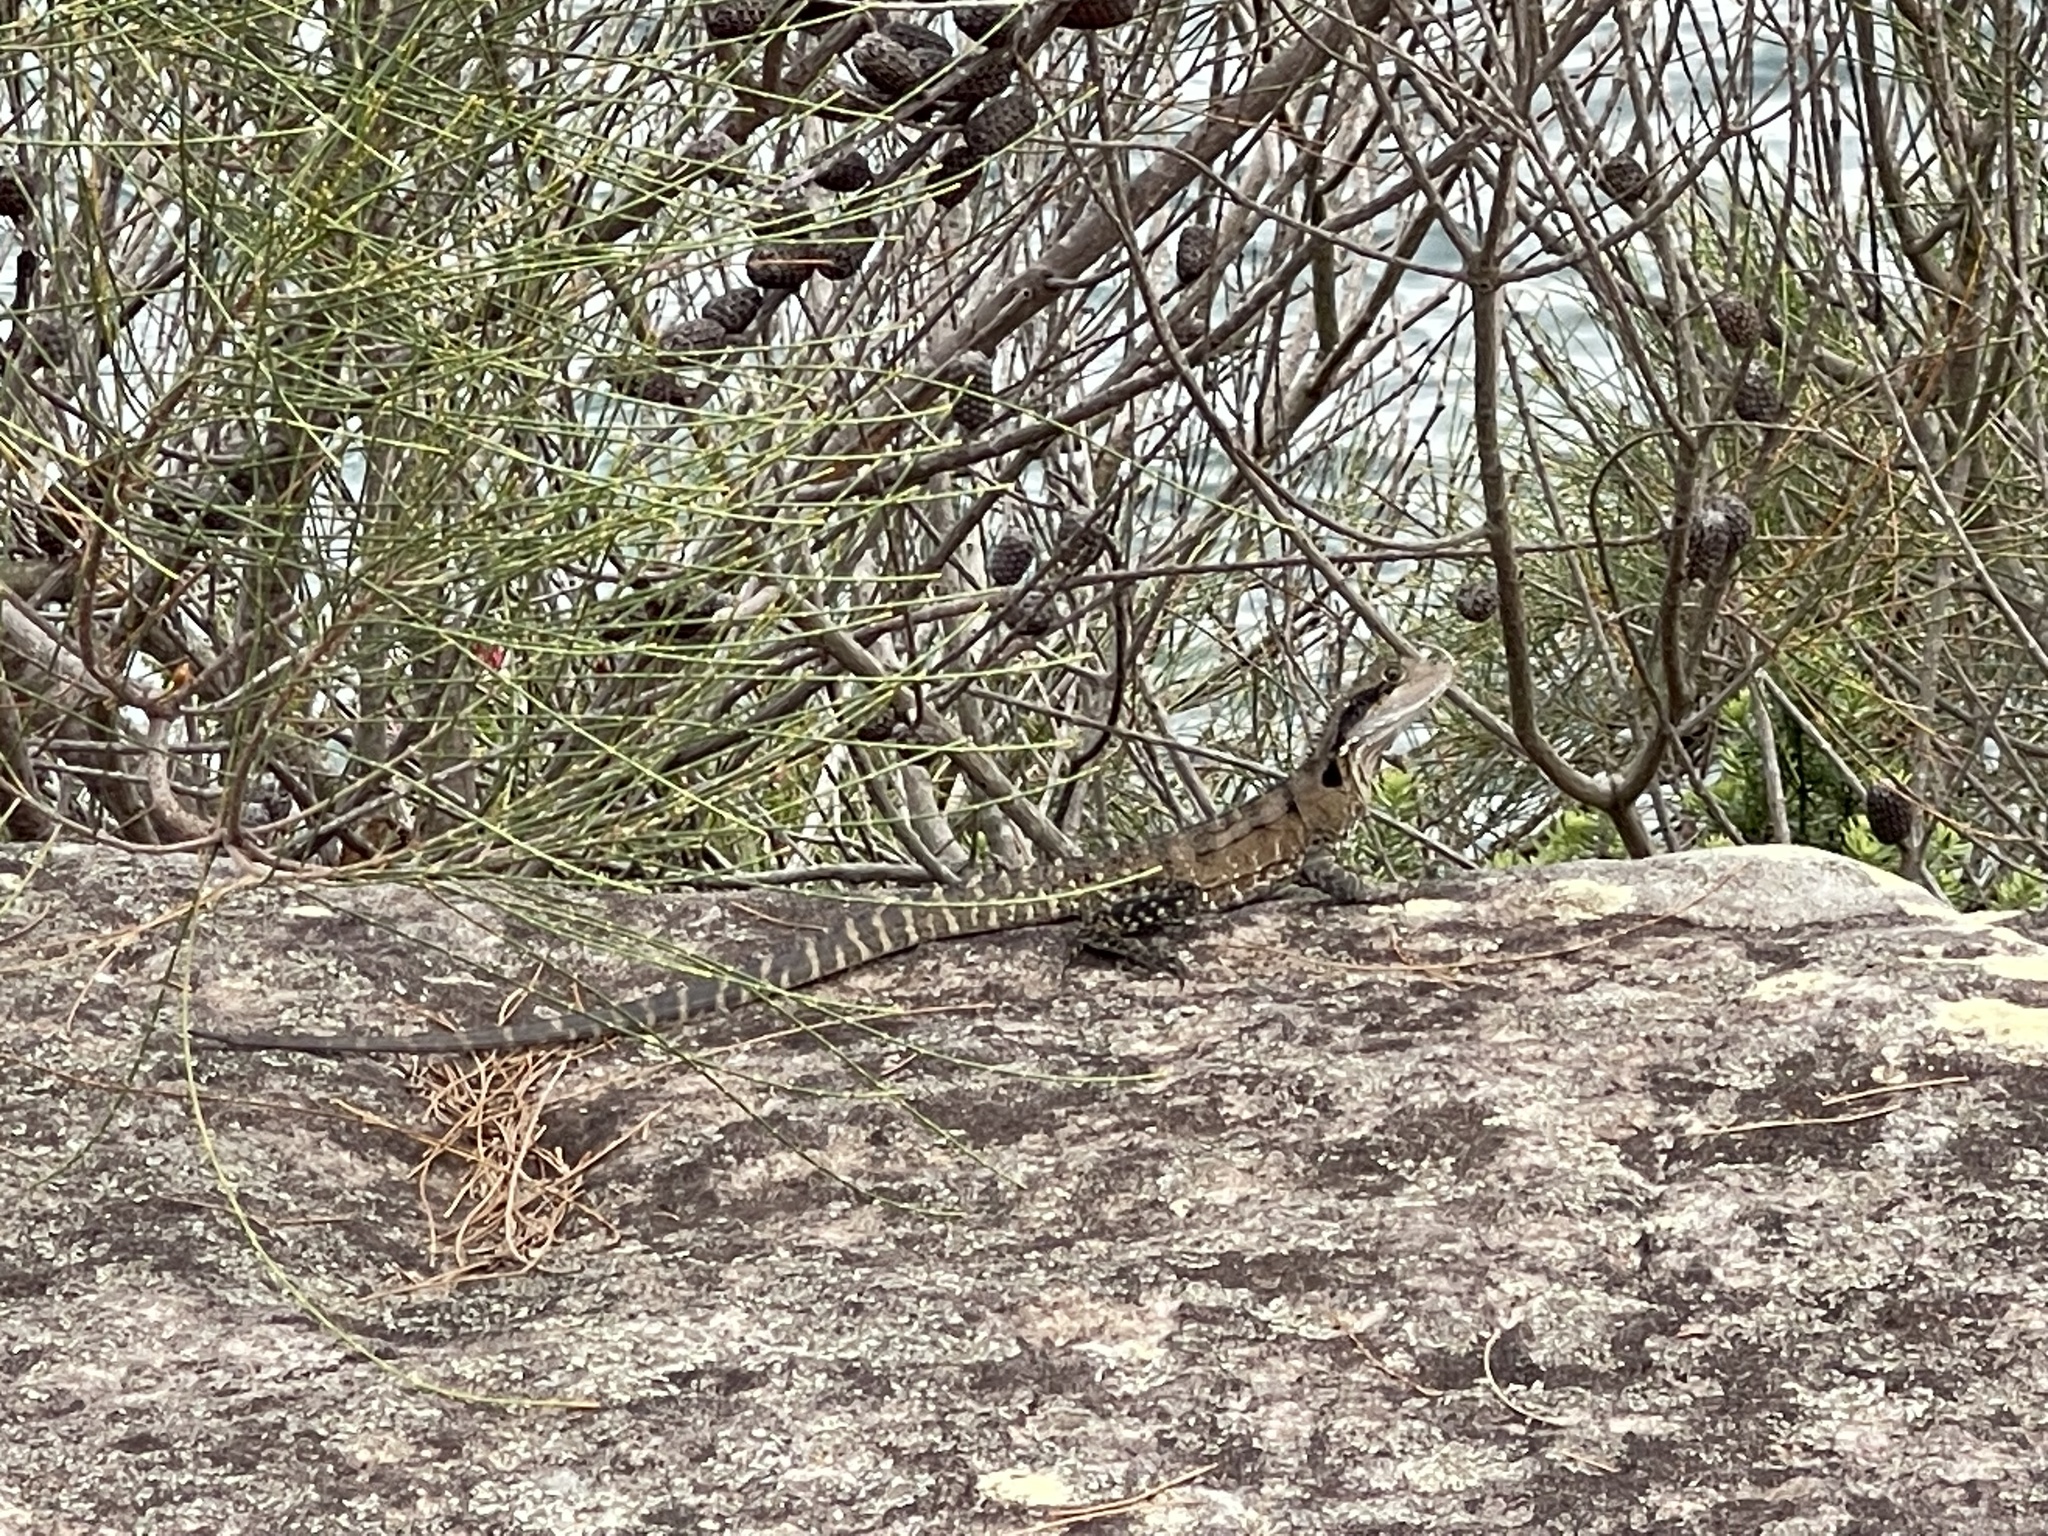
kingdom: Animalia
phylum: Chordata
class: Squamata
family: Agamidae
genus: Intellagama
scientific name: Intellagama lesueurii
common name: Eastern water dragon
